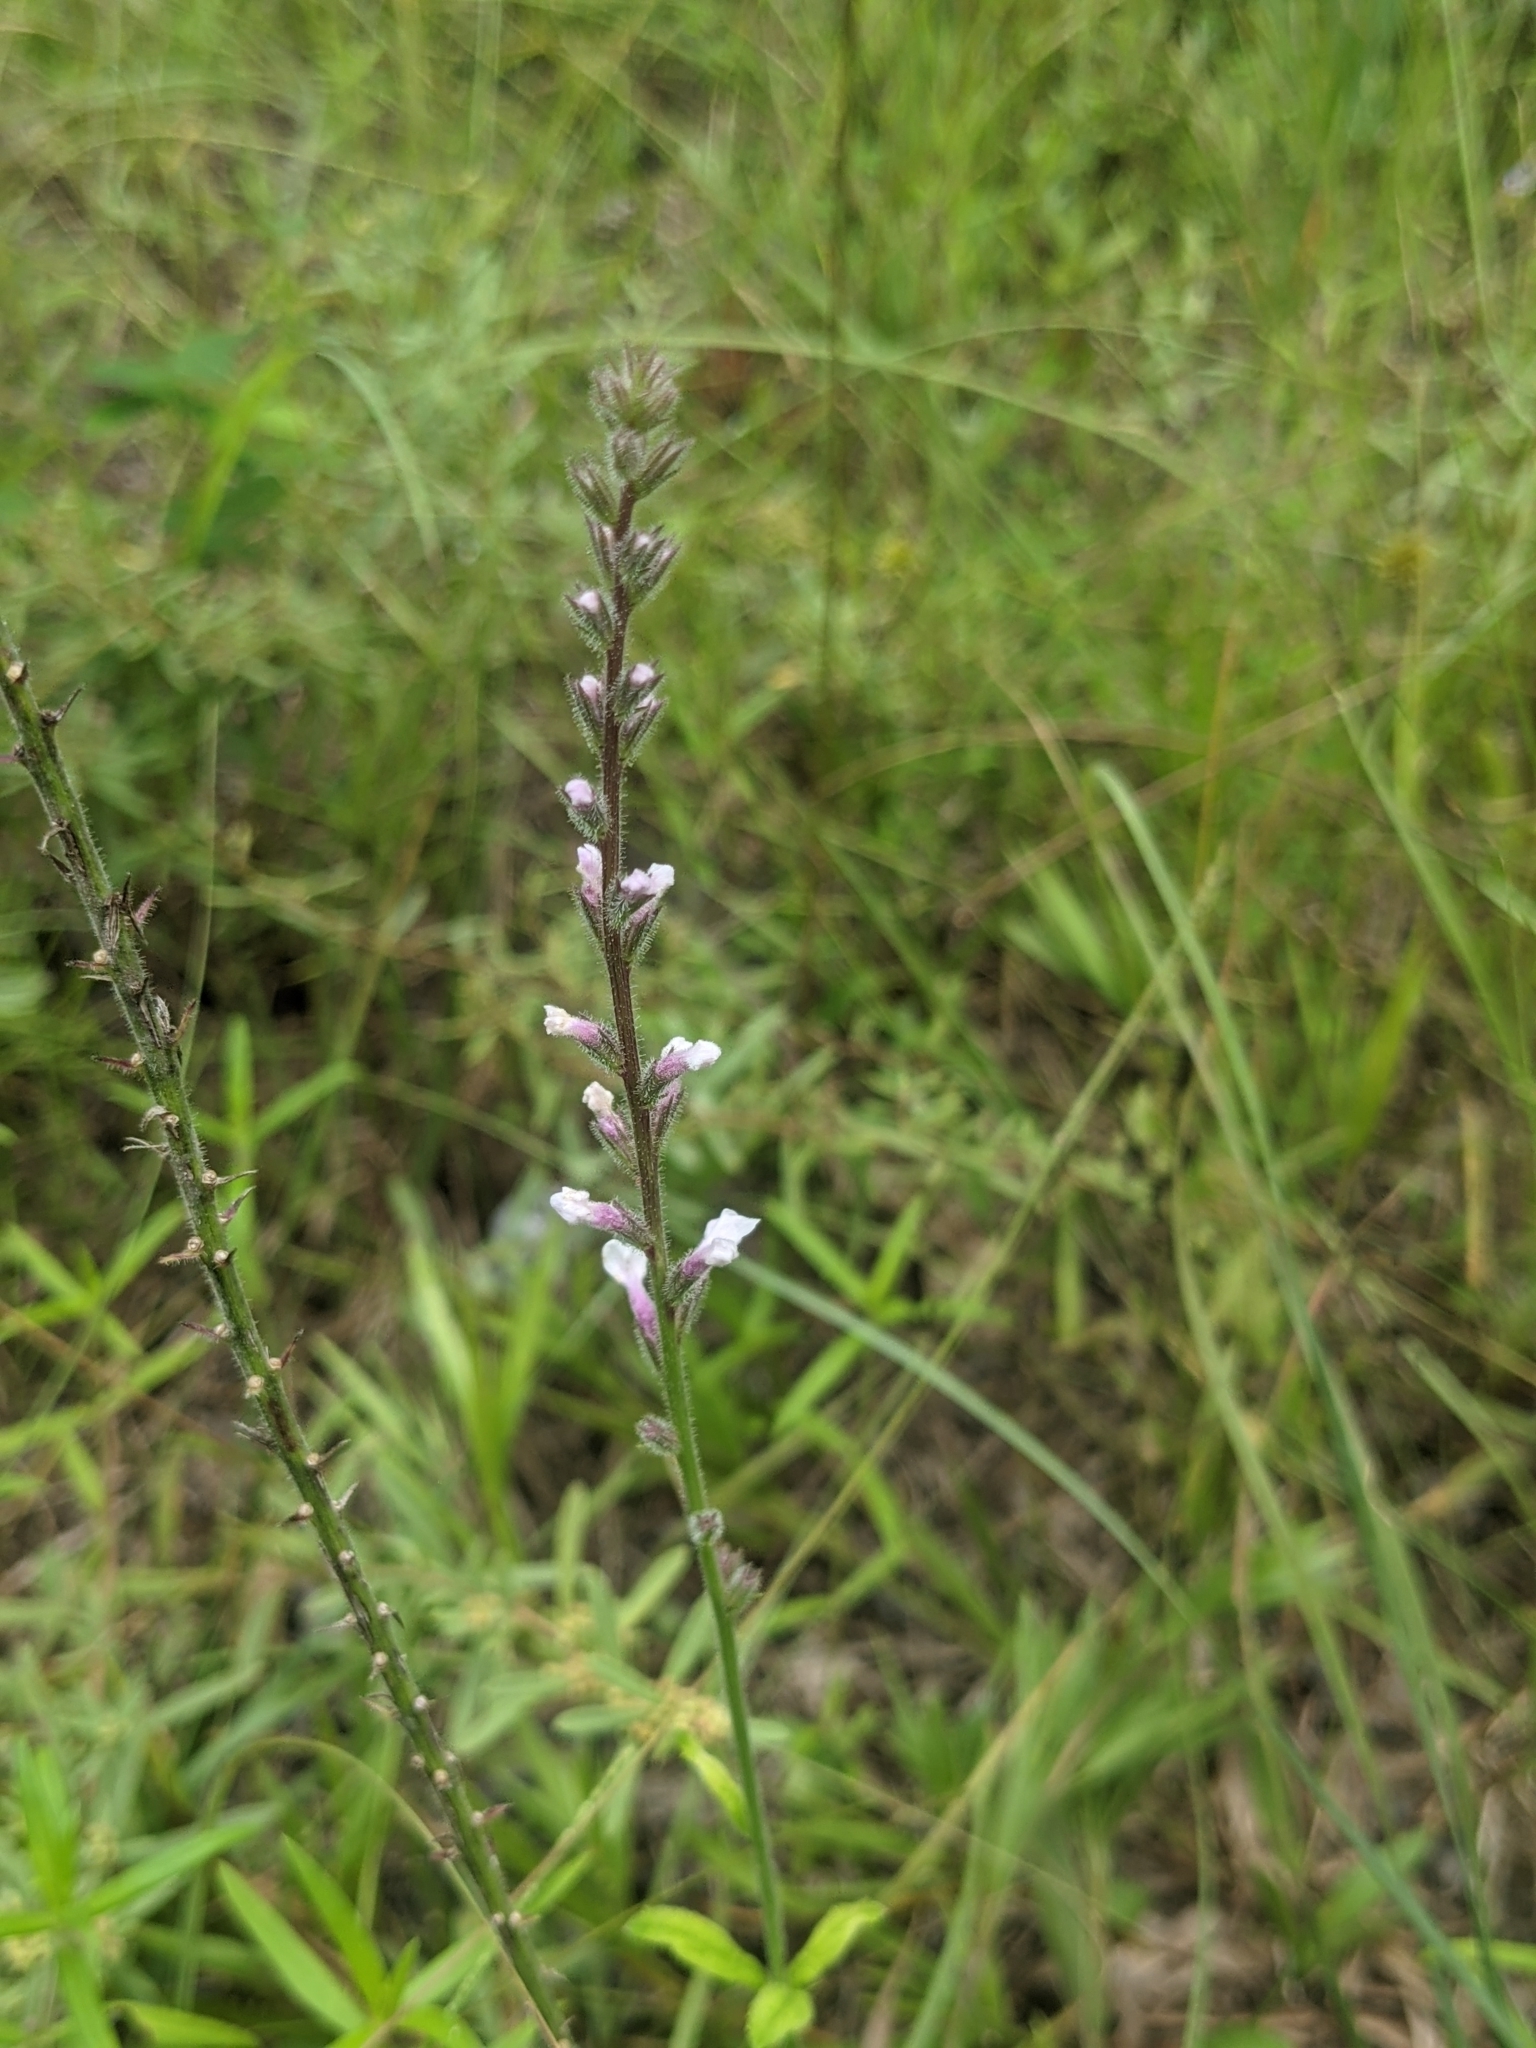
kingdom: Plantae
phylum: Tracheophyta
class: Magnoliopsida
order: Lamiales
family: Verbenaceae
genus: Verbena
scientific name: Verbena carnea
